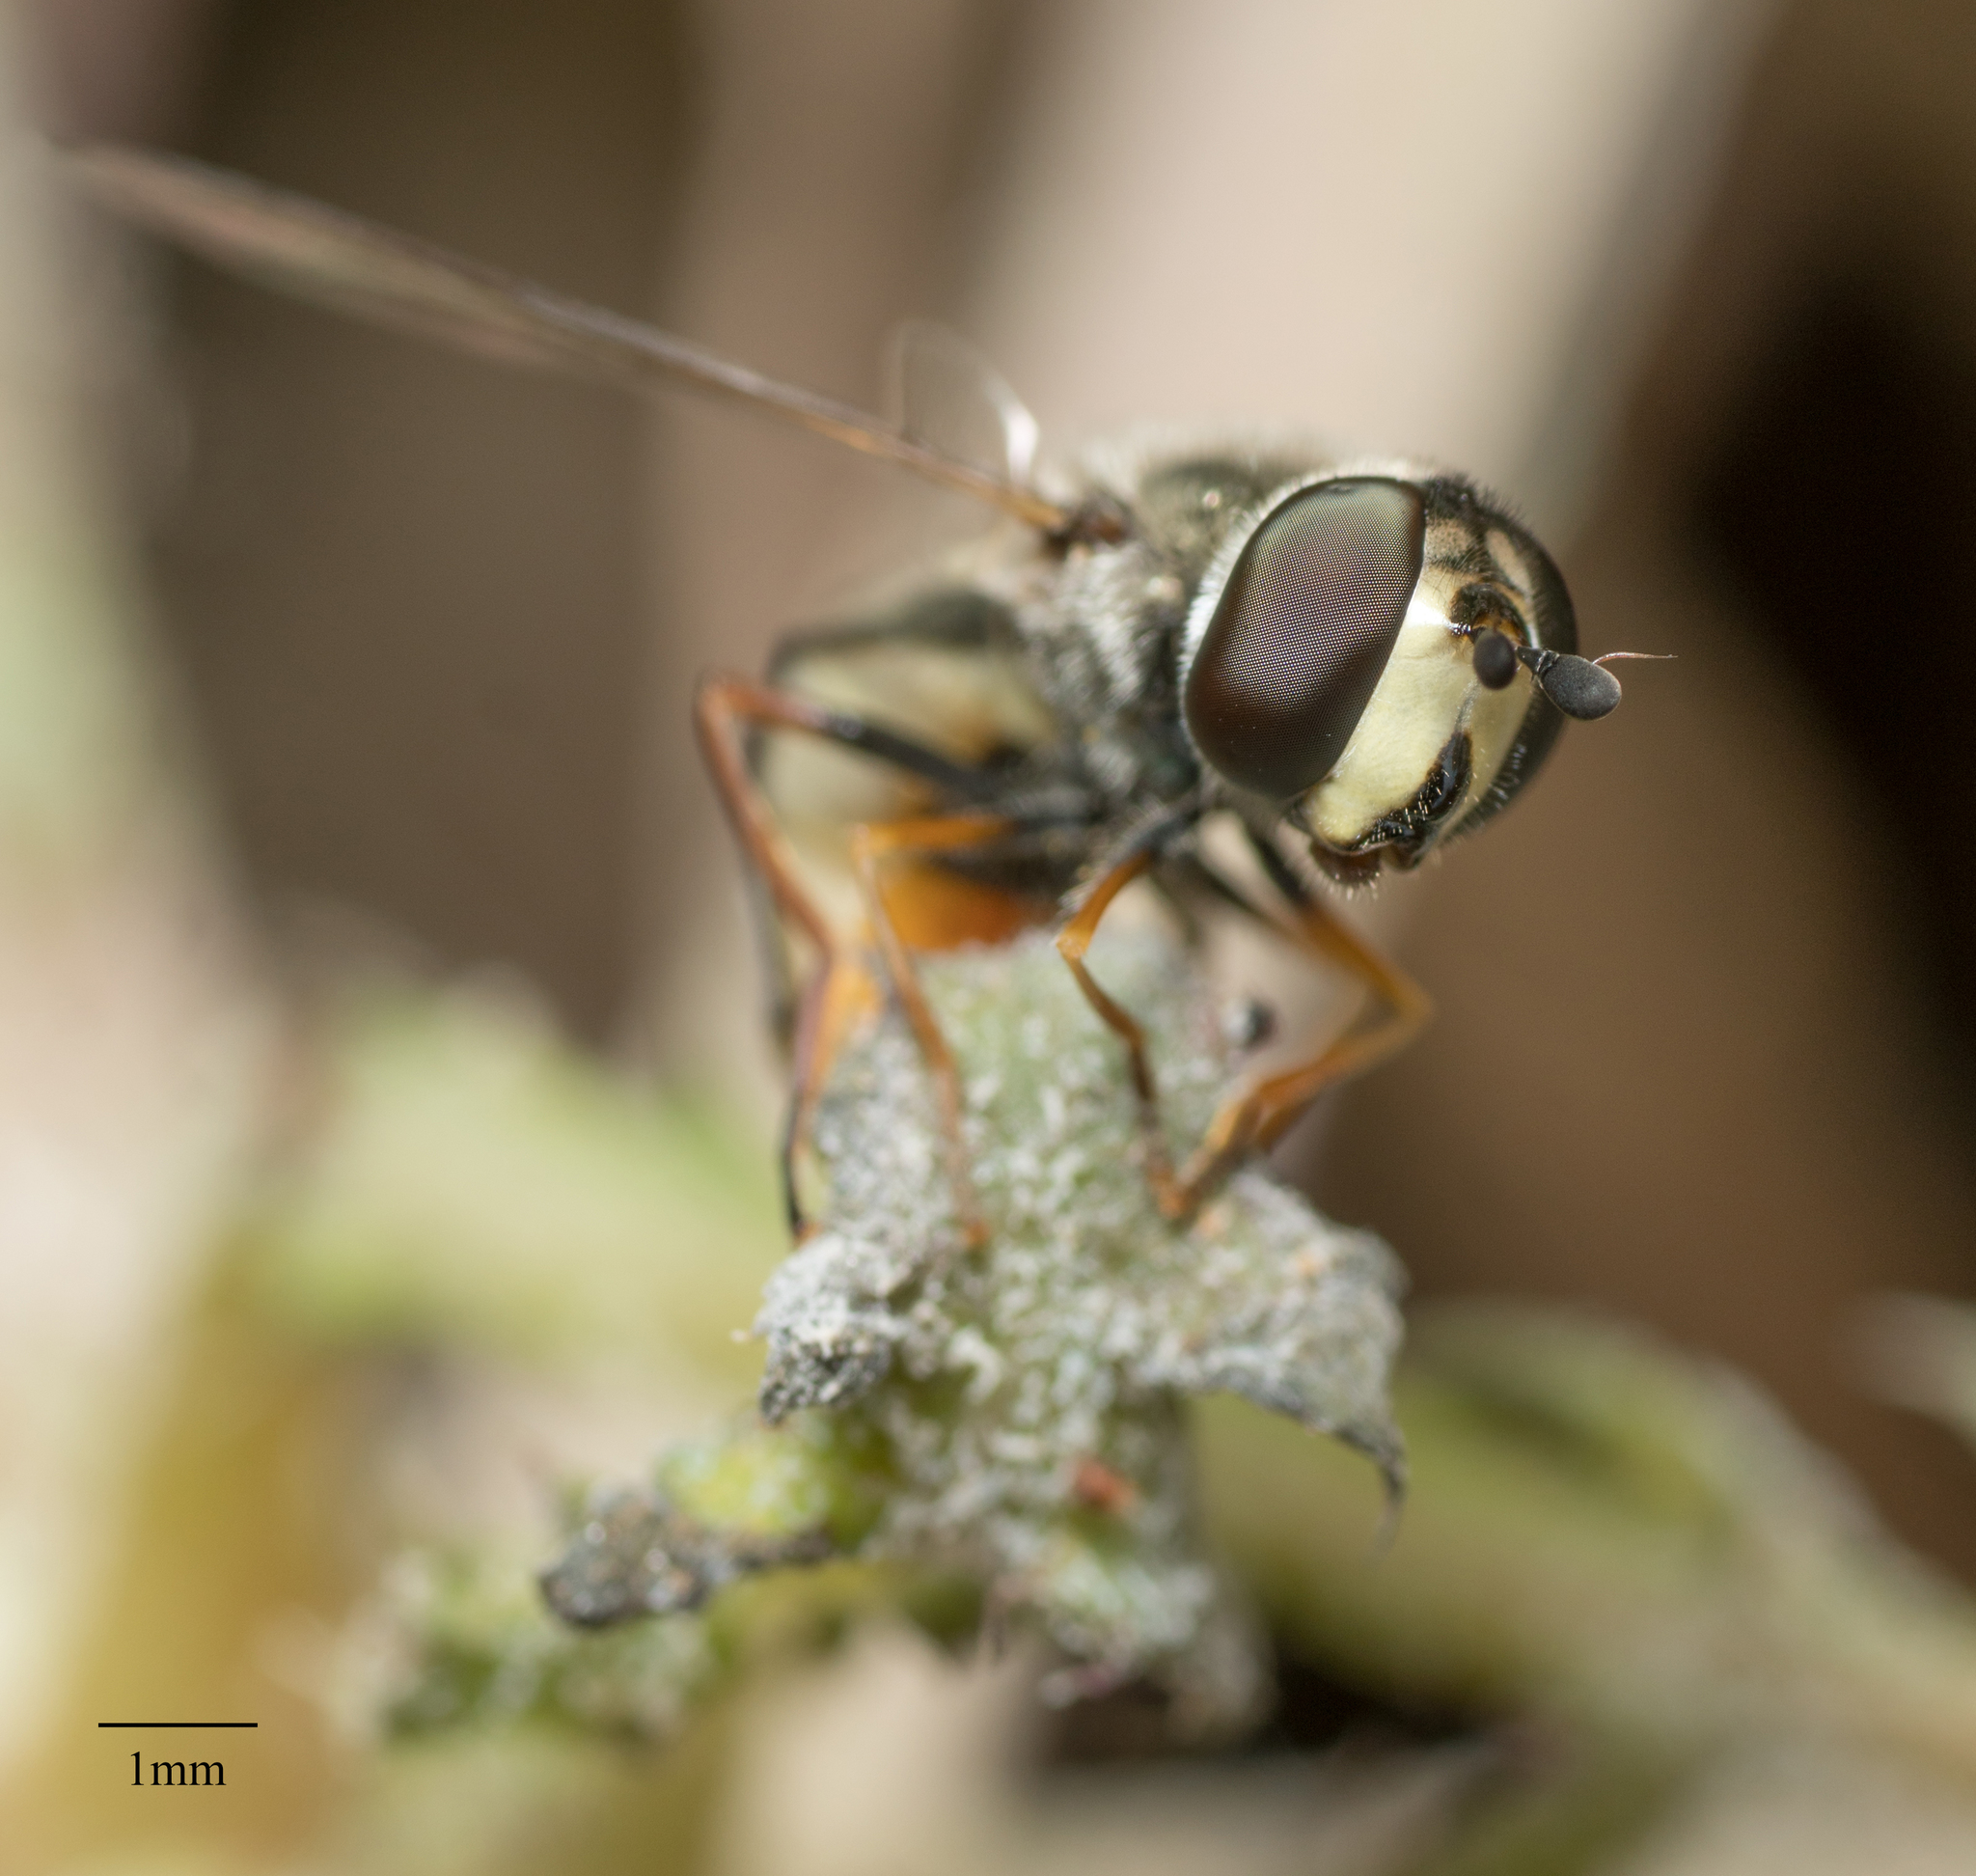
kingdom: Animalia
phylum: Arthropoda
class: Insecta
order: Diptera
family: Syrphidae
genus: Eupeodes
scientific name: Eupeodes volucris
